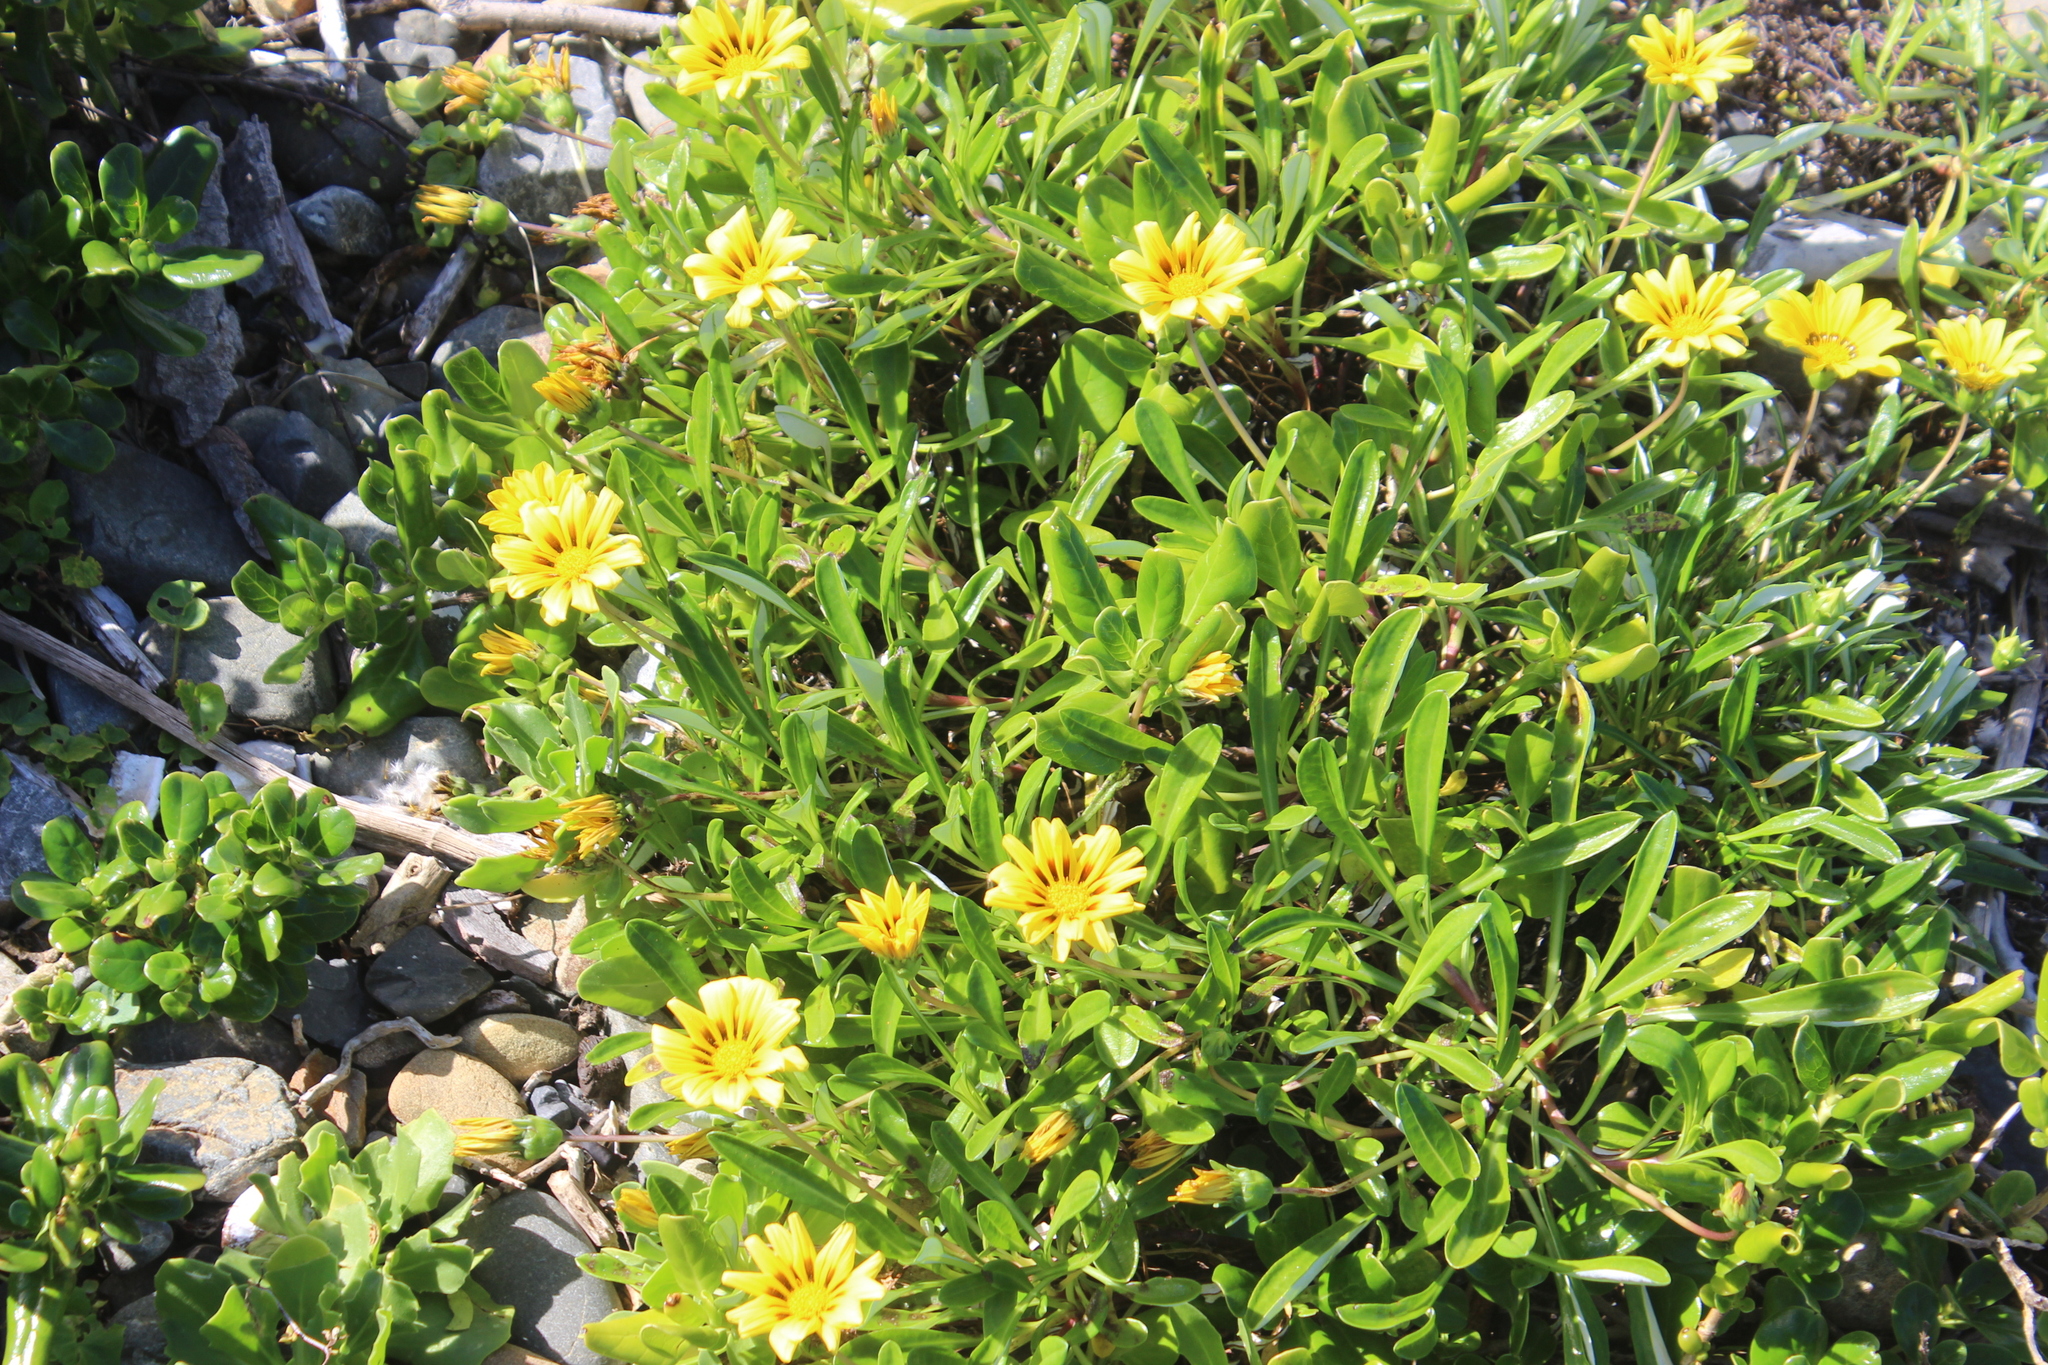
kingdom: Plantae
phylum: Tracheophyta
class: Magnoliopsida
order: Asterales
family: Asteraceae
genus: Gazania
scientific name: Gazania splendens
